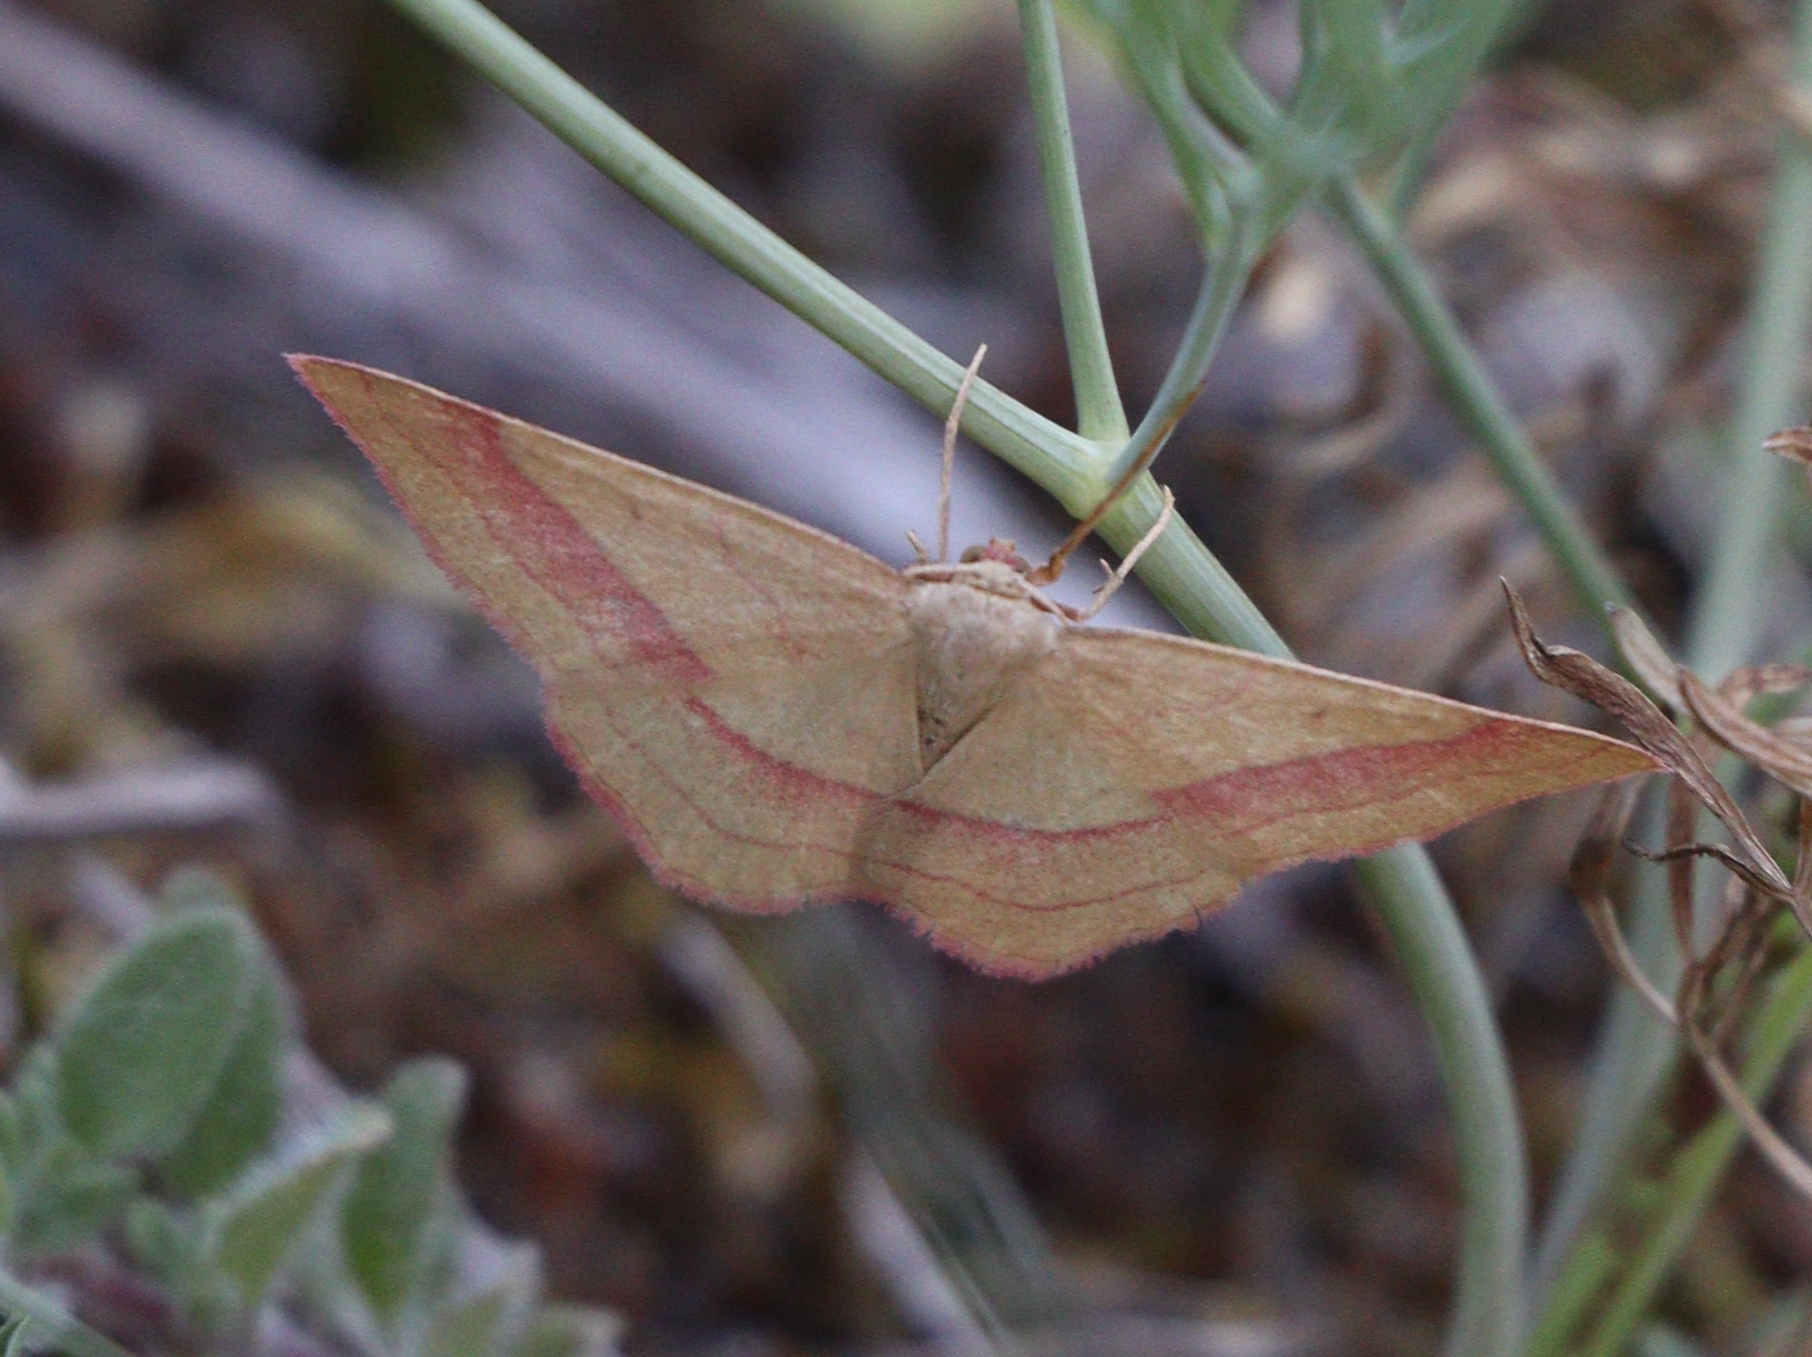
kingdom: Animalia
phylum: Arthropoda
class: Insecta
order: Lepidoptera
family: Geometridae
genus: Rhodostrophia
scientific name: Rhodostrophia vibicaria
